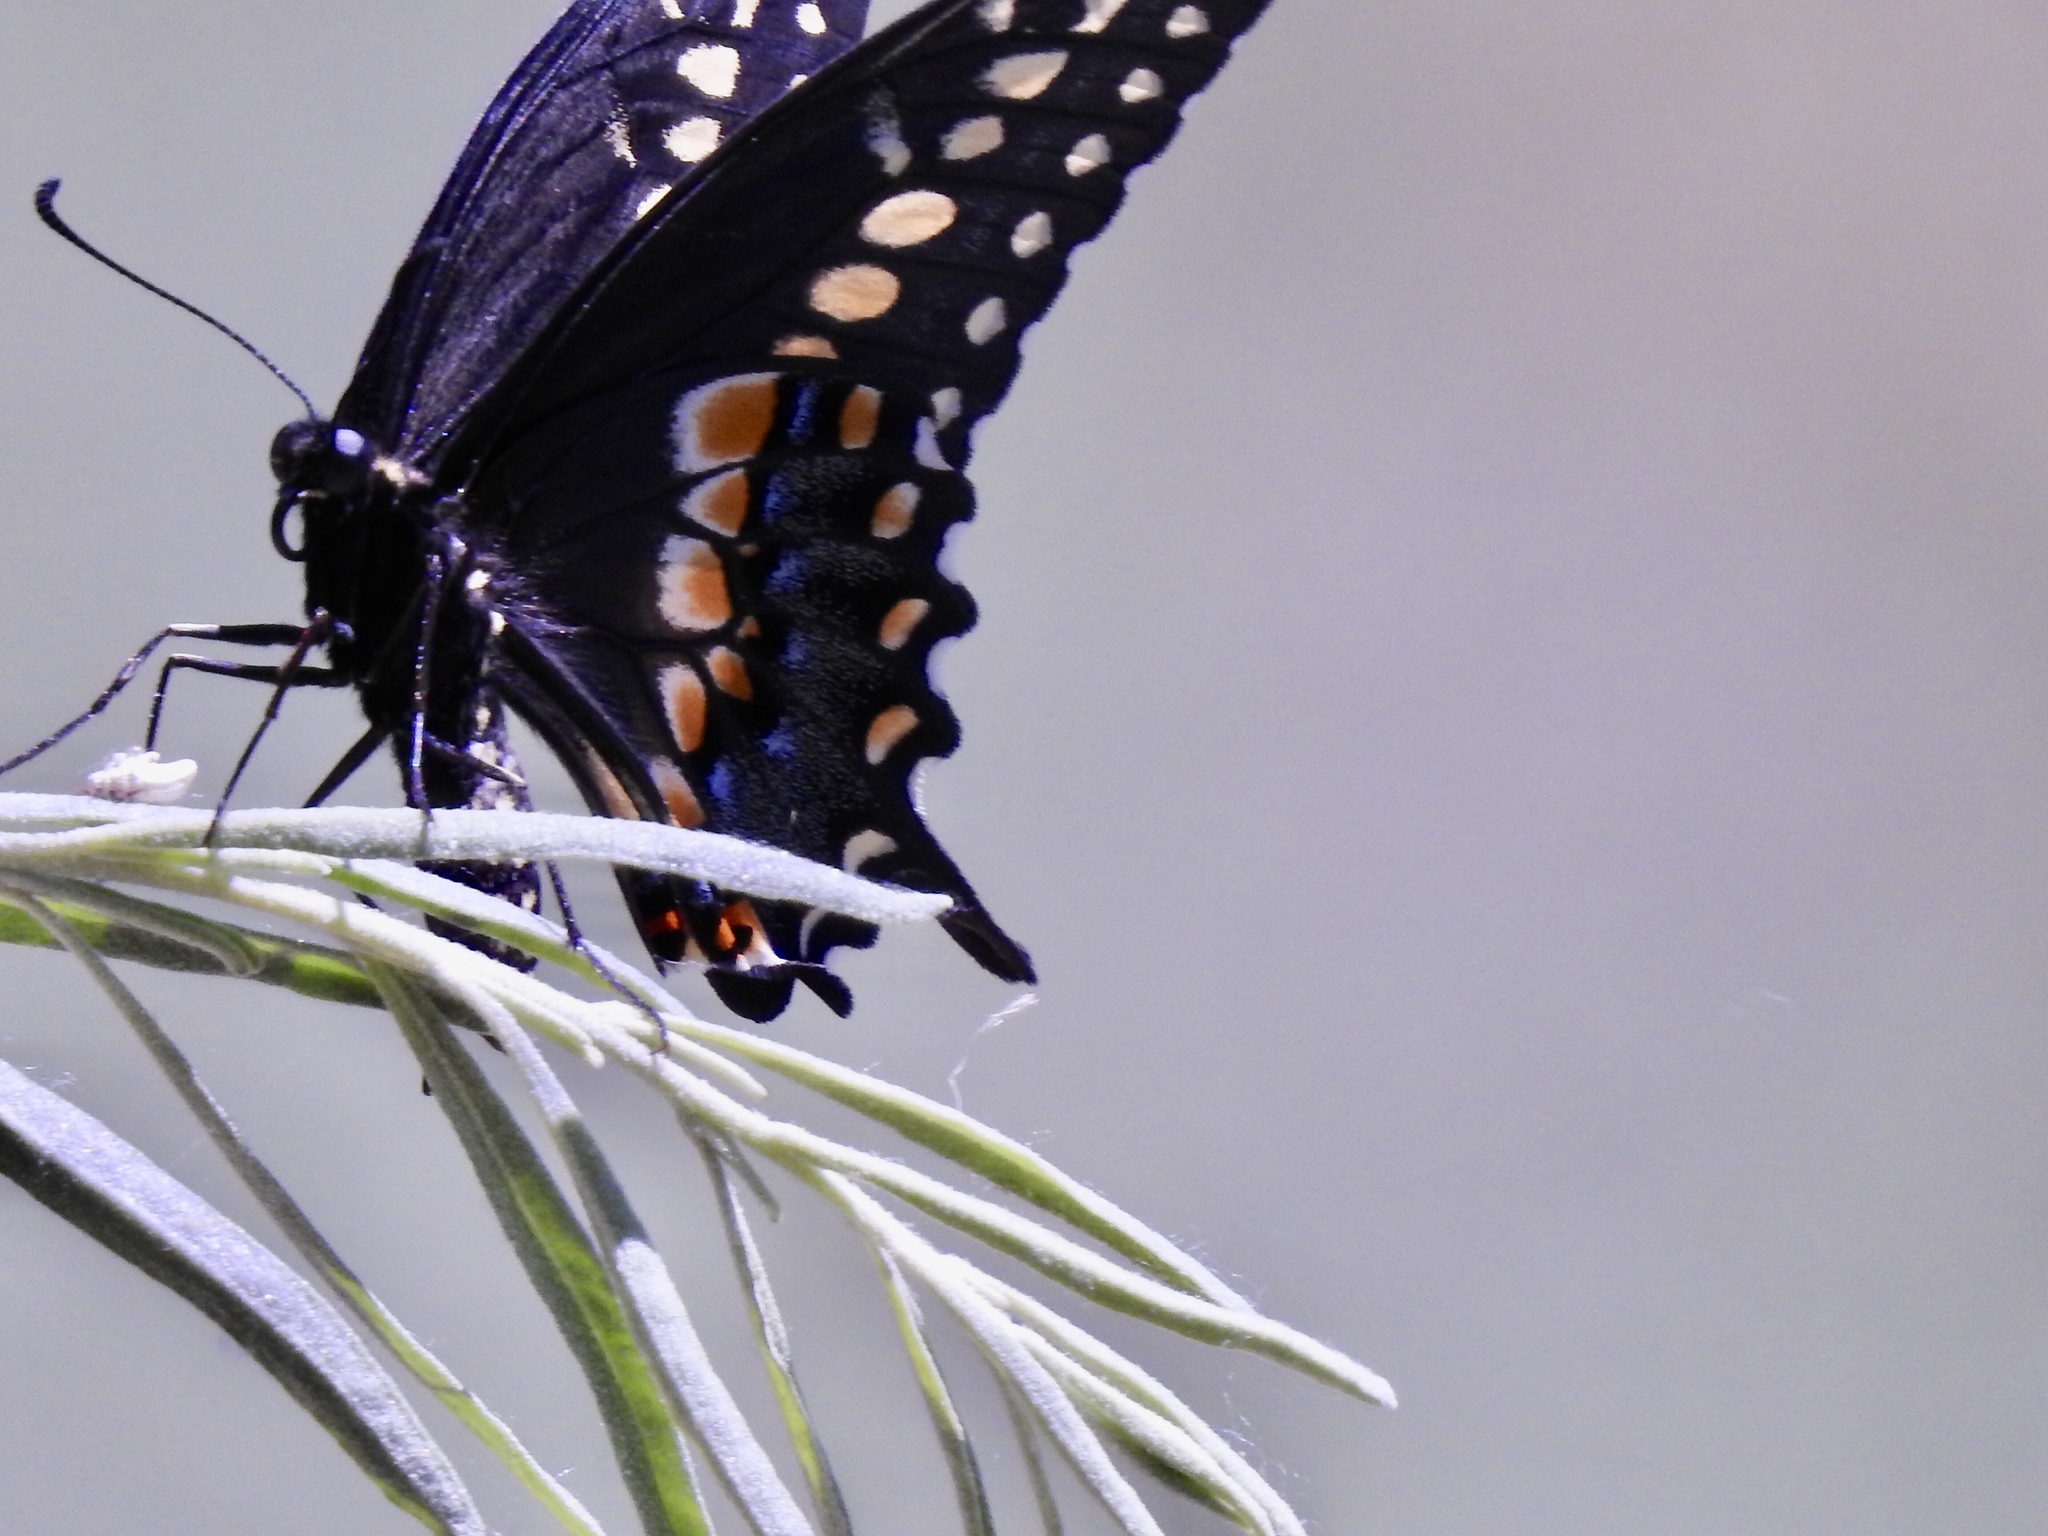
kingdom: Animalia
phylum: Arthropoda
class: Insecta
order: Lepidoptera
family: Papilionidae
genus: Papilio
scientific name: Papilio polyxenes
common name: Black swallowtail
